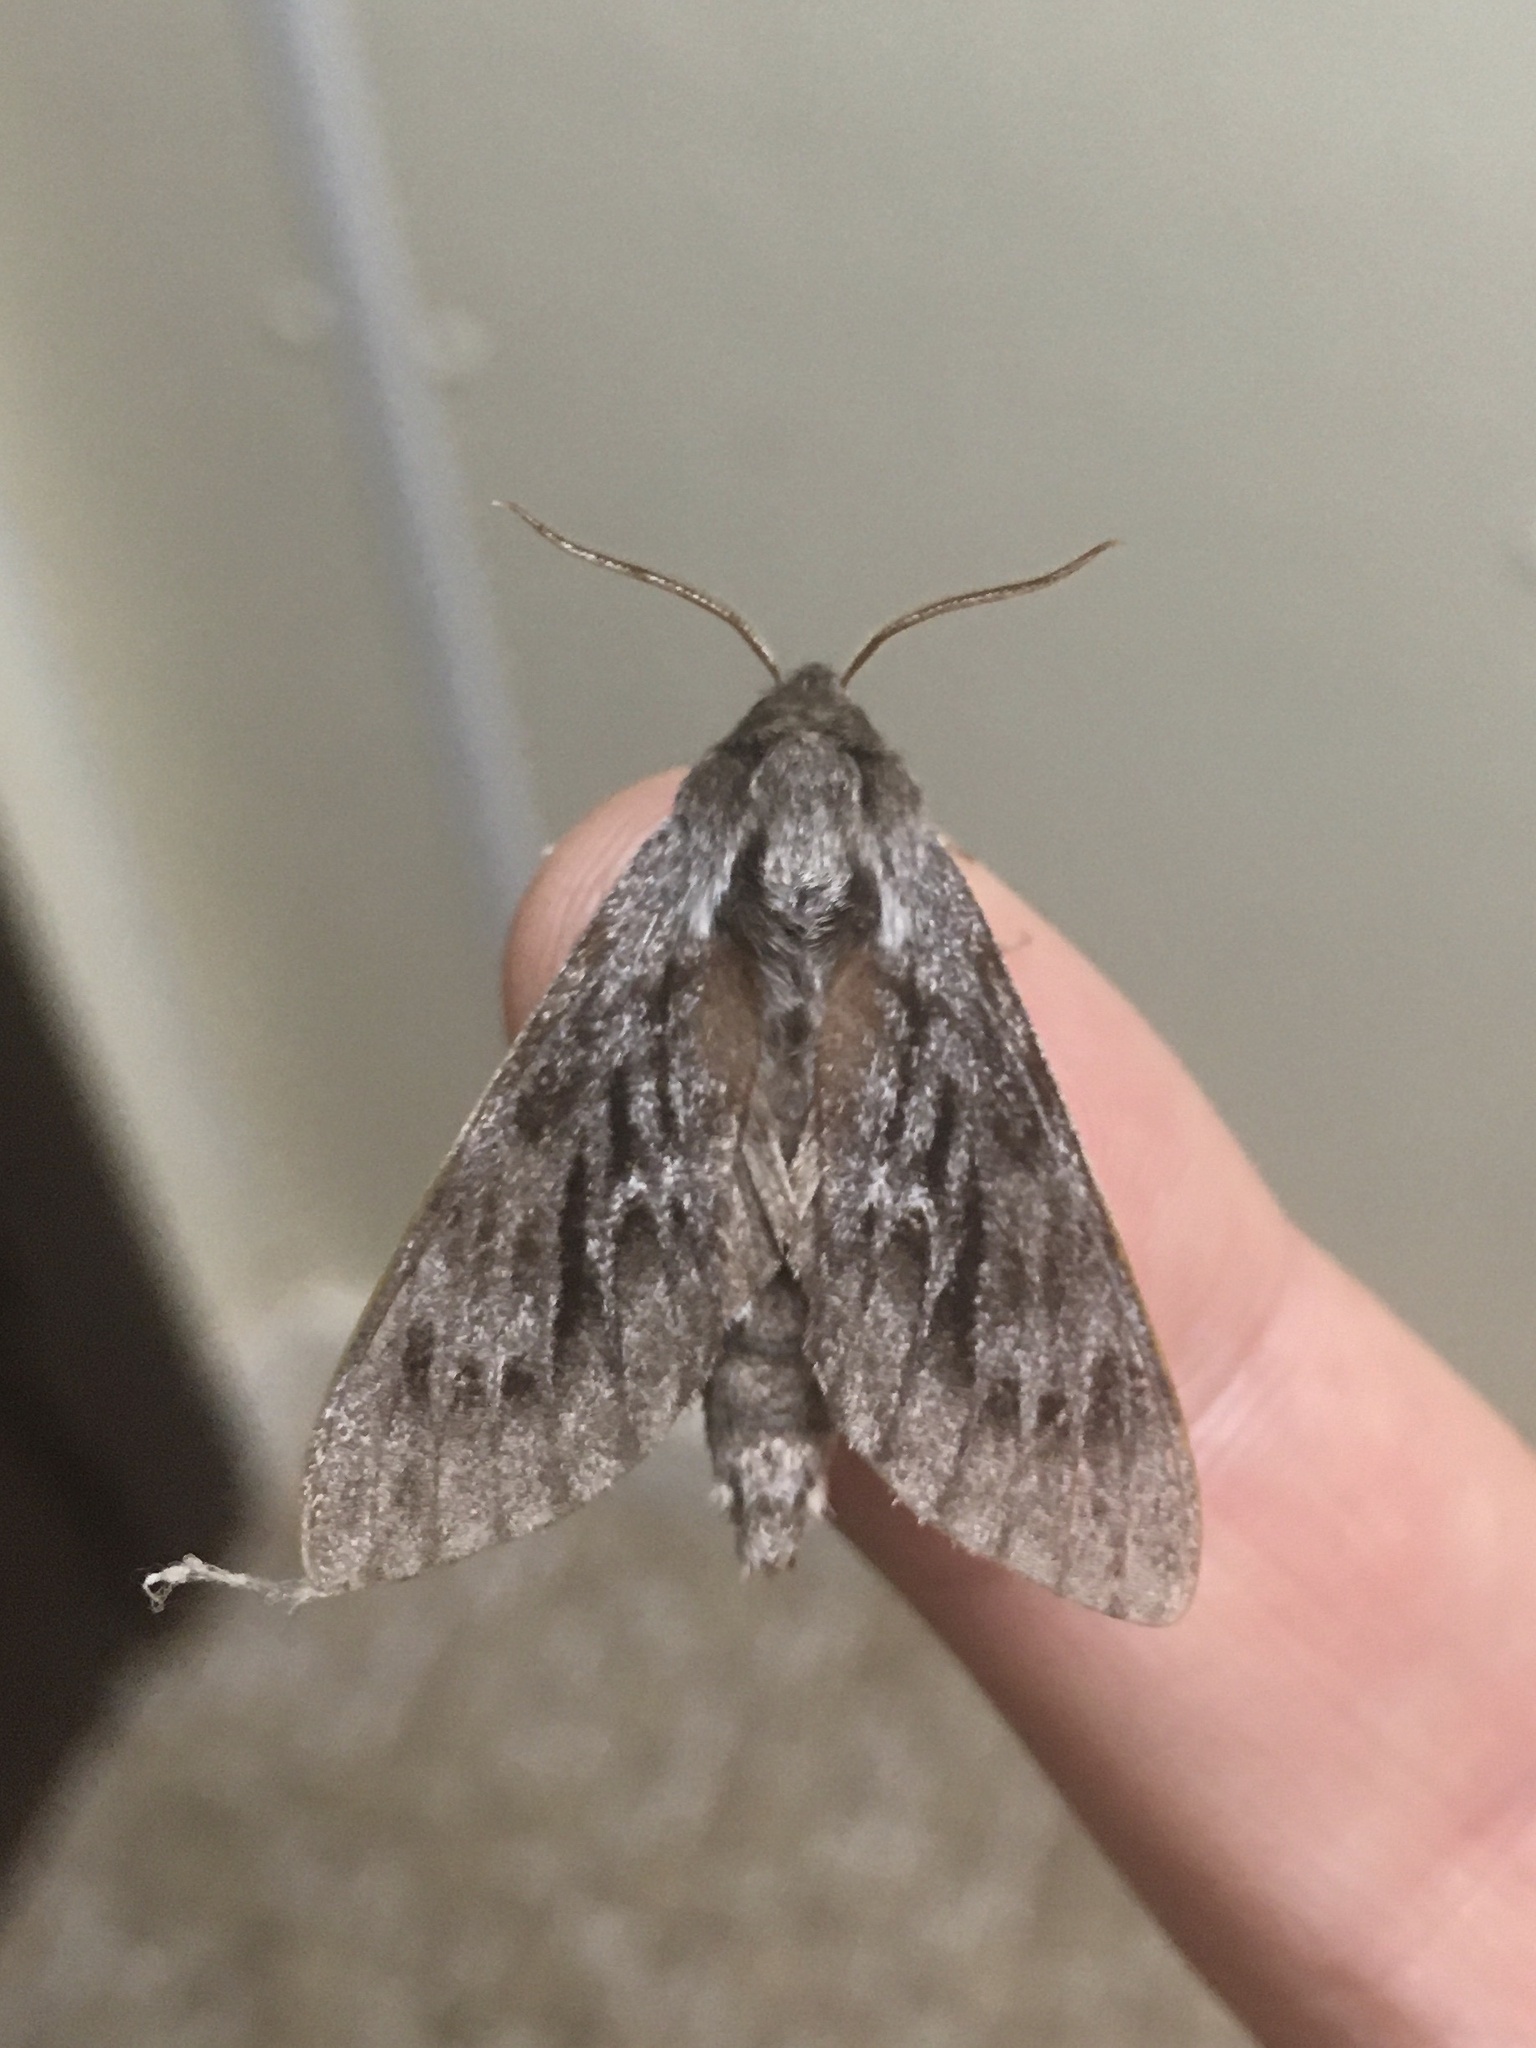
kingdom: Animalia
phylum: Arthropoda
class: Insecta
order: Lepidoptera
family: Sphingidae
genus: Lapara
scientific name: Lapara bombycoides
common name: Northern pine sphinx
